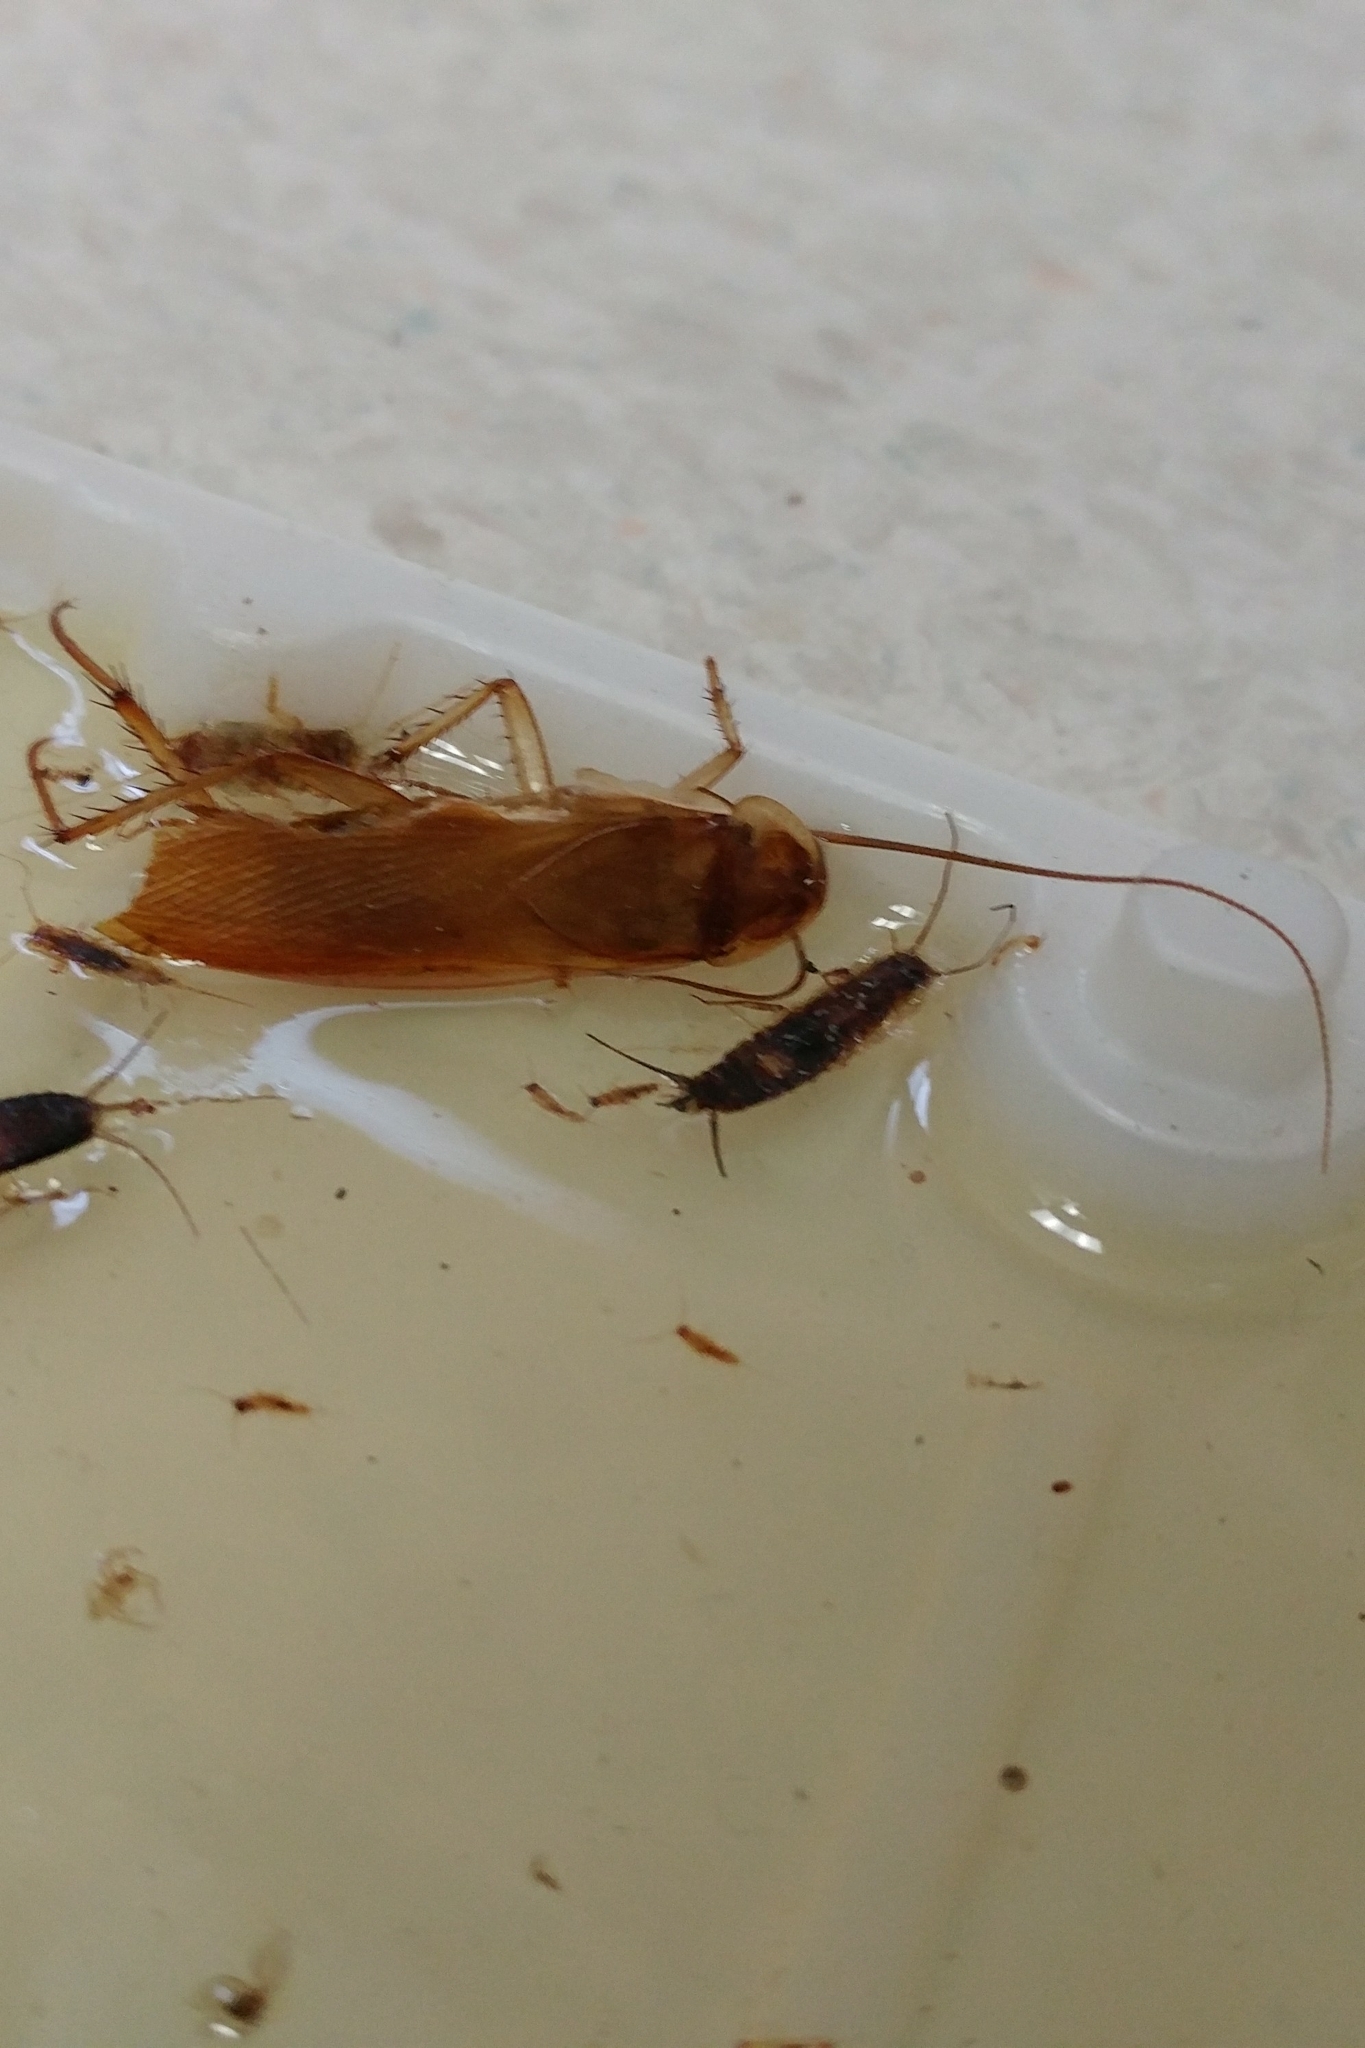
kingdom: Animalia
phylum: Arthropoda
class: Insecta
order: Blattodea
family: Blattidae
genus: Periplaneta
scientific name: Periplaneta lateralis
